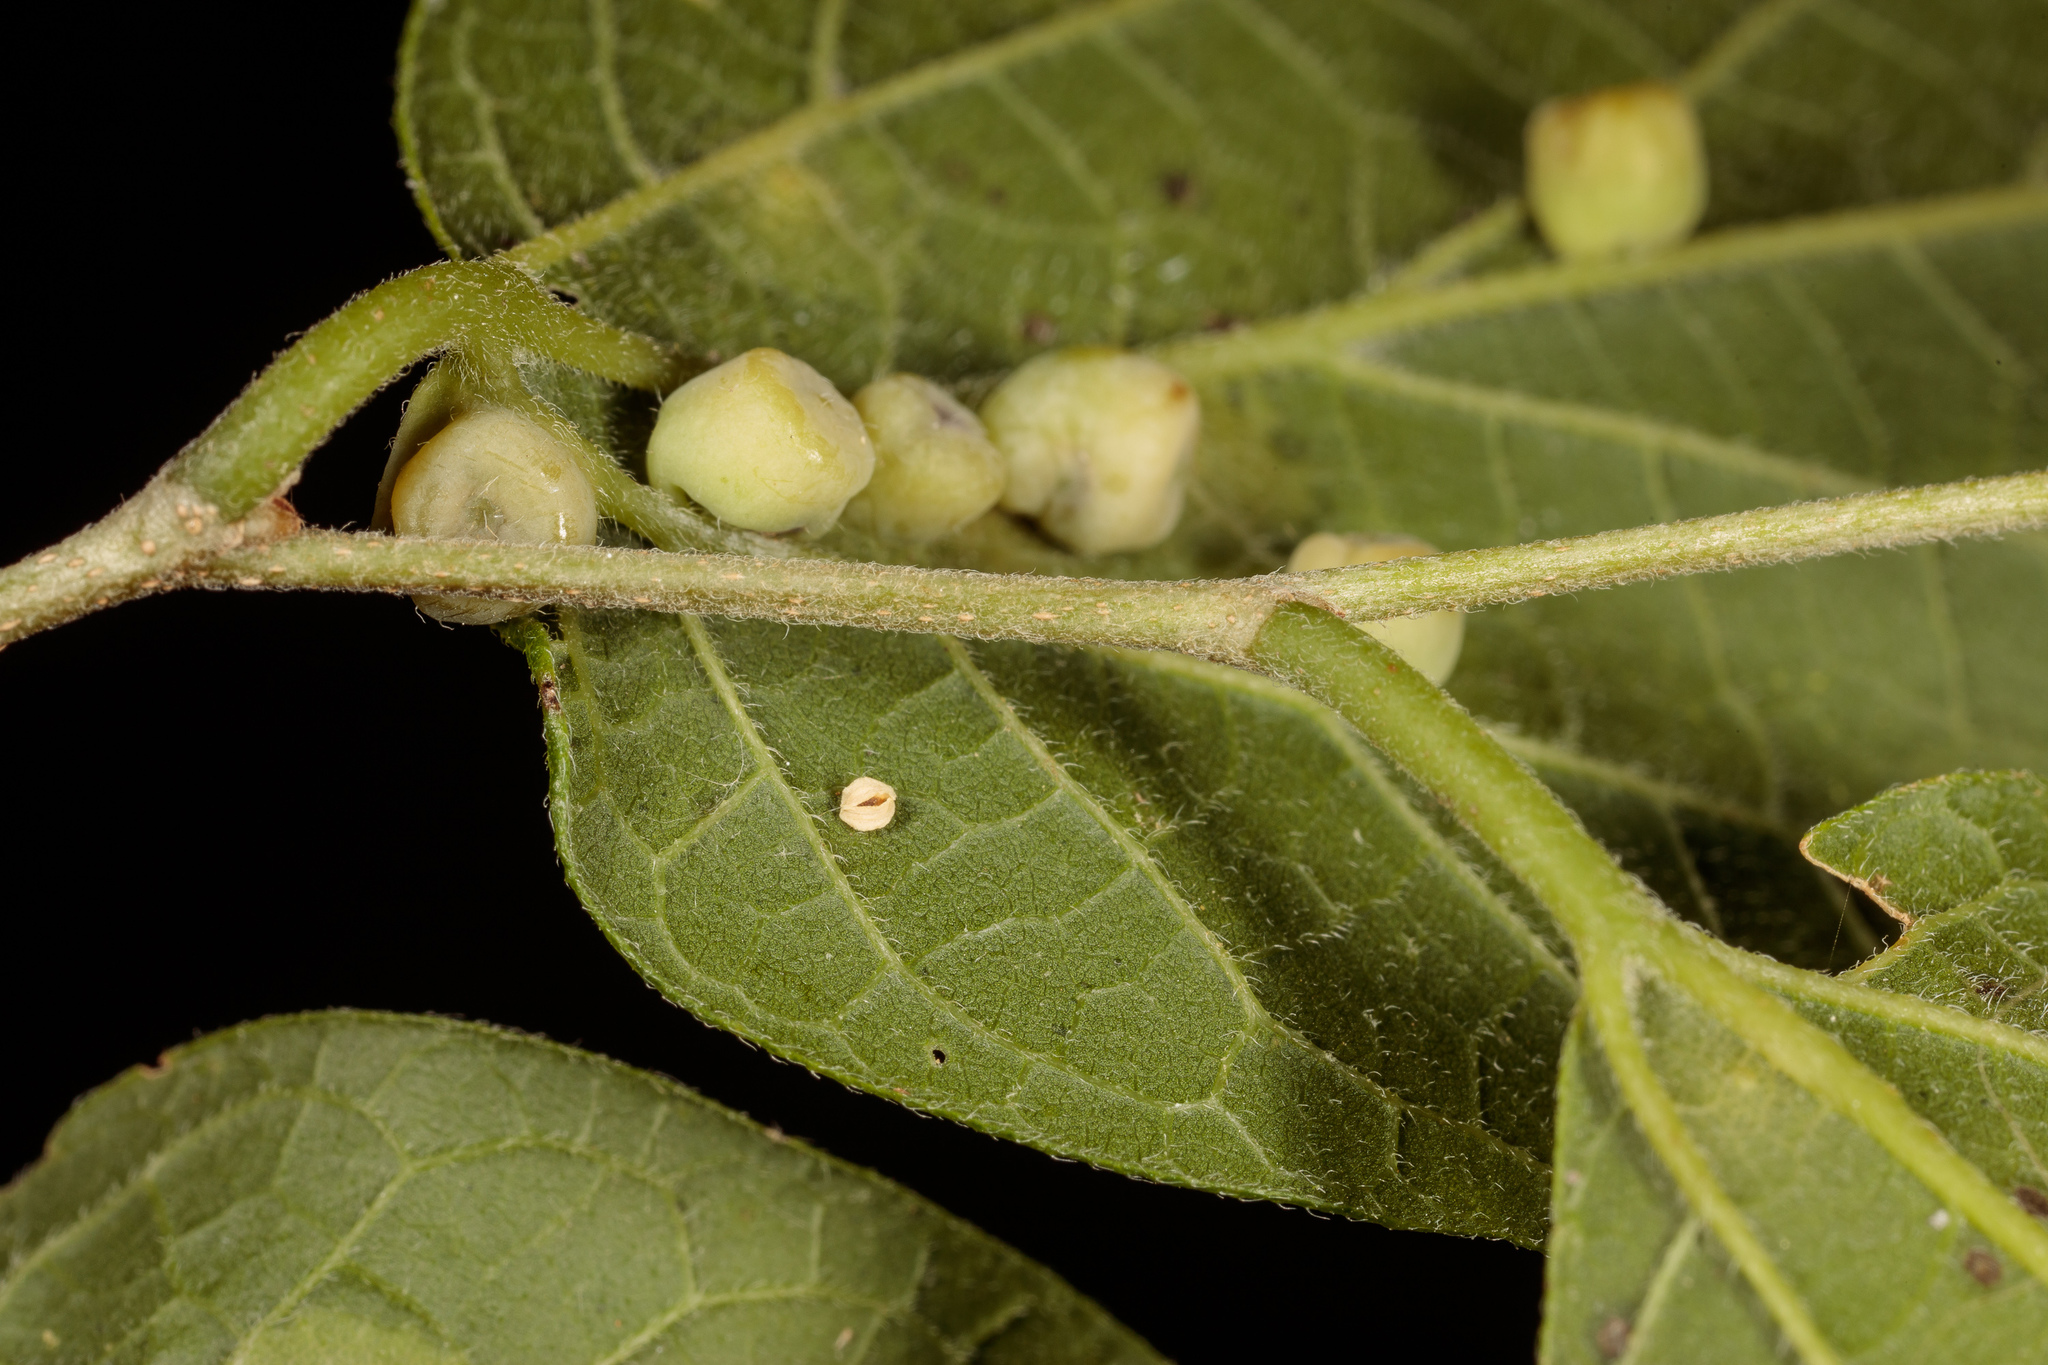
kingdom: Animalia
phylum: Arthropoda
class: Insecta
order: Hemiptera
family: Aphalaridae
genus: Pachypsylla
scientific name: Pachypsylla celtidismamma
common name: Hackberry nipplegall psyllid
